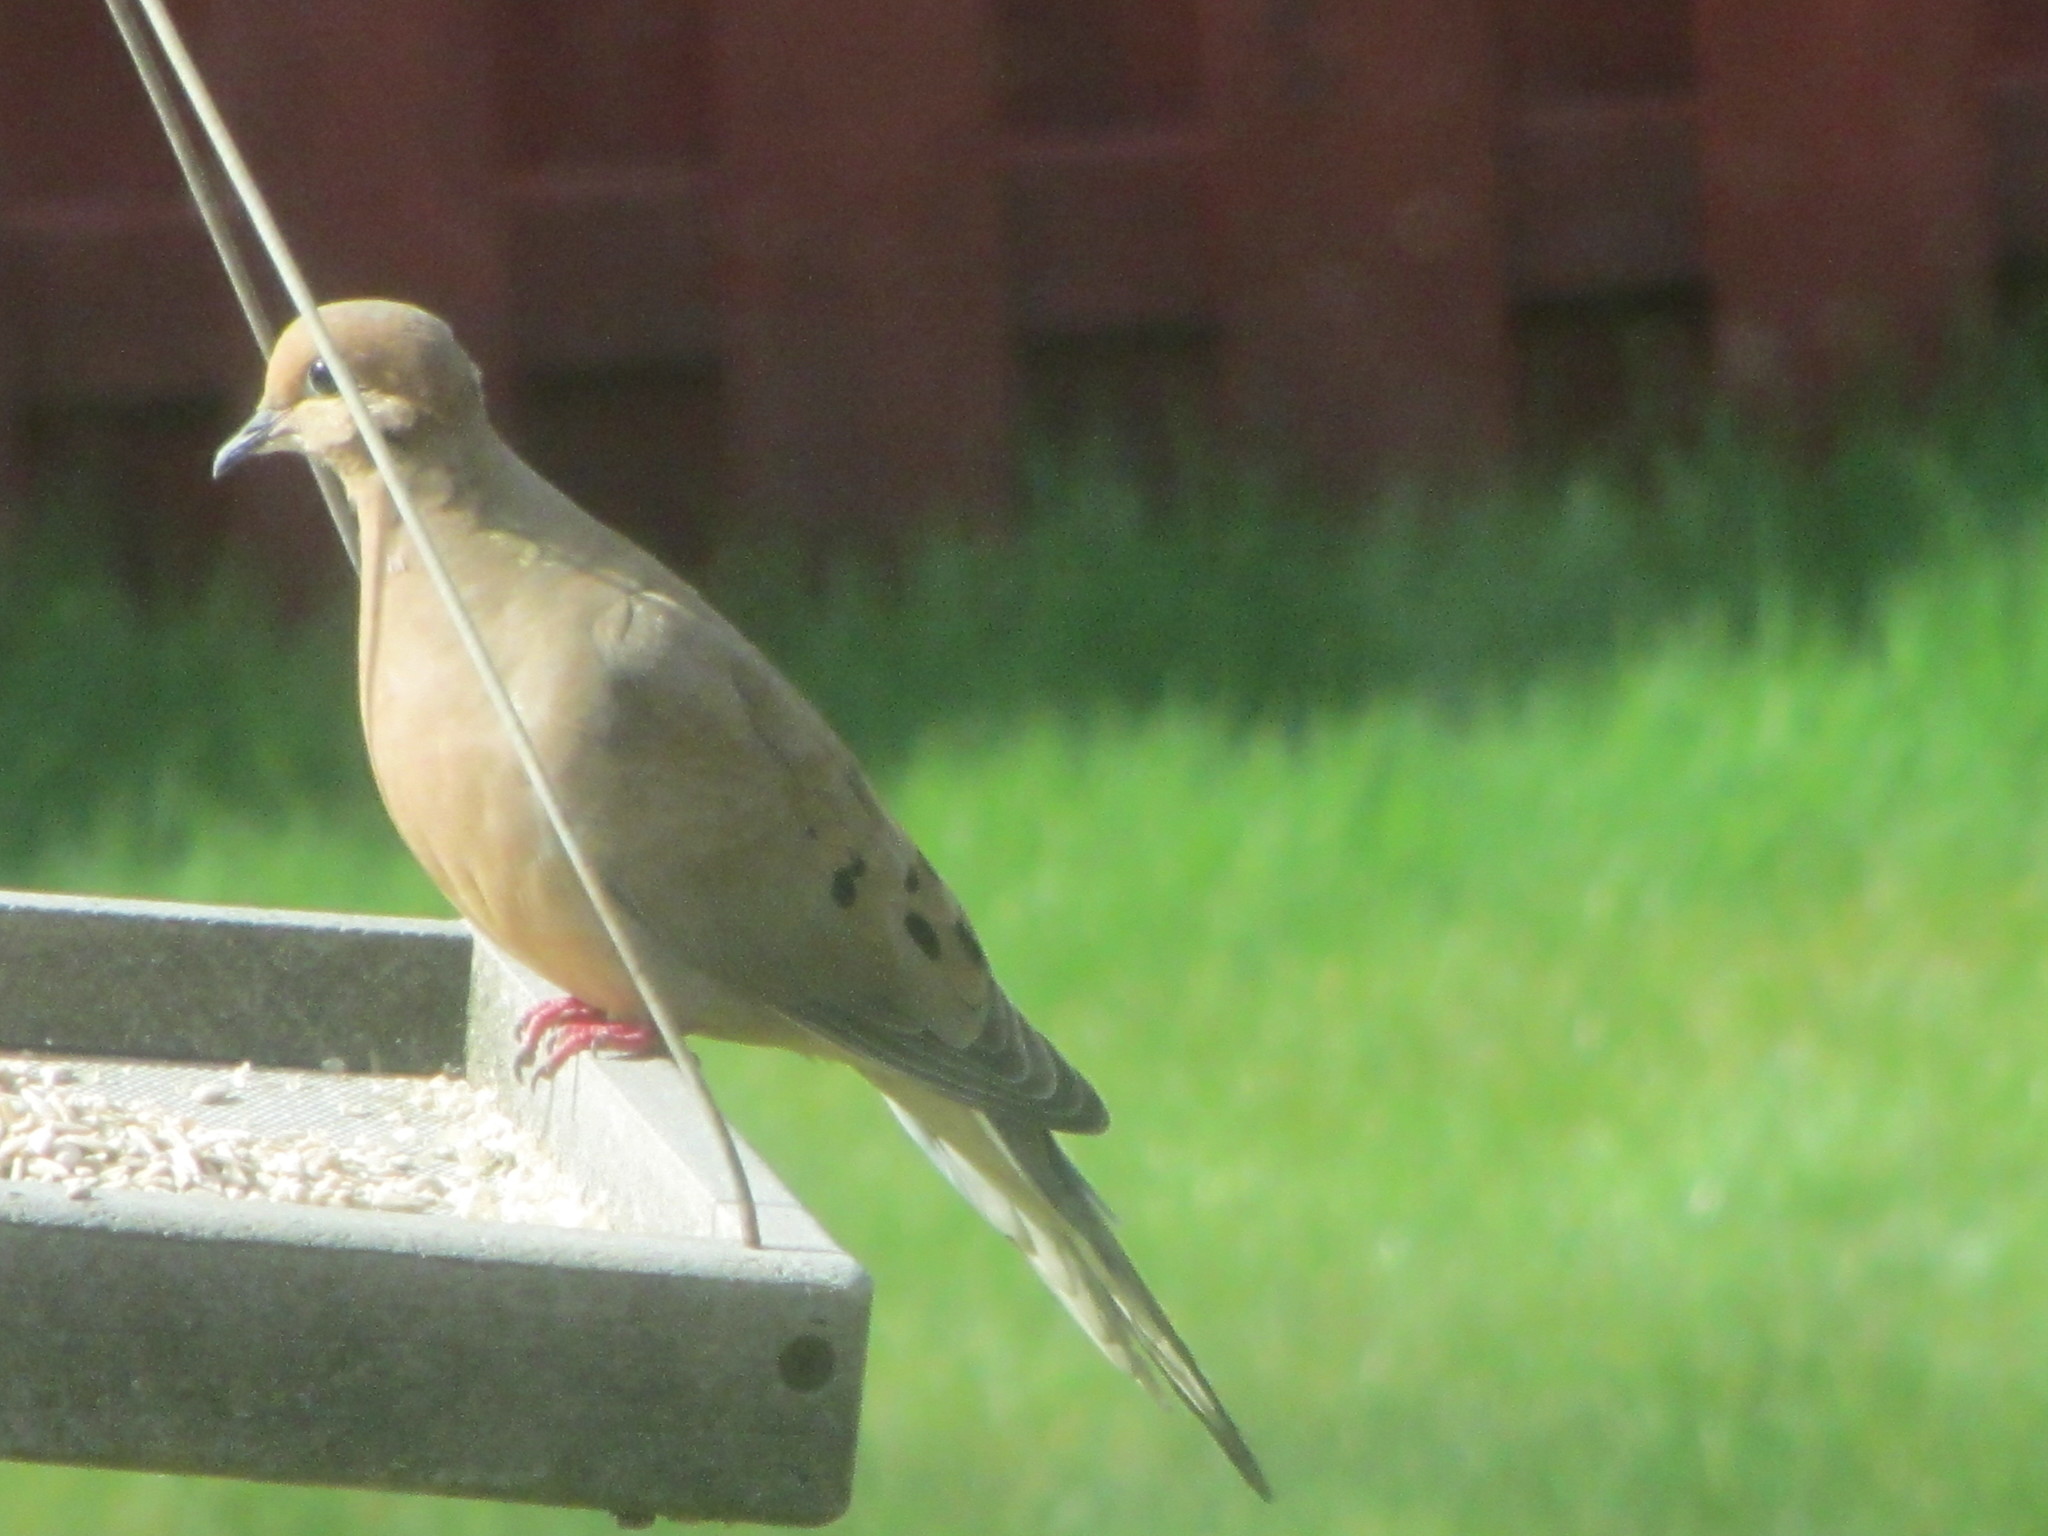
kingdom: Animalia
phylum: Chordata
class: Aves
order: Columbiformes
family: Columbidae
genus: Zenaida
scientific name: Zenaida macroura
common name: Mourning dove
